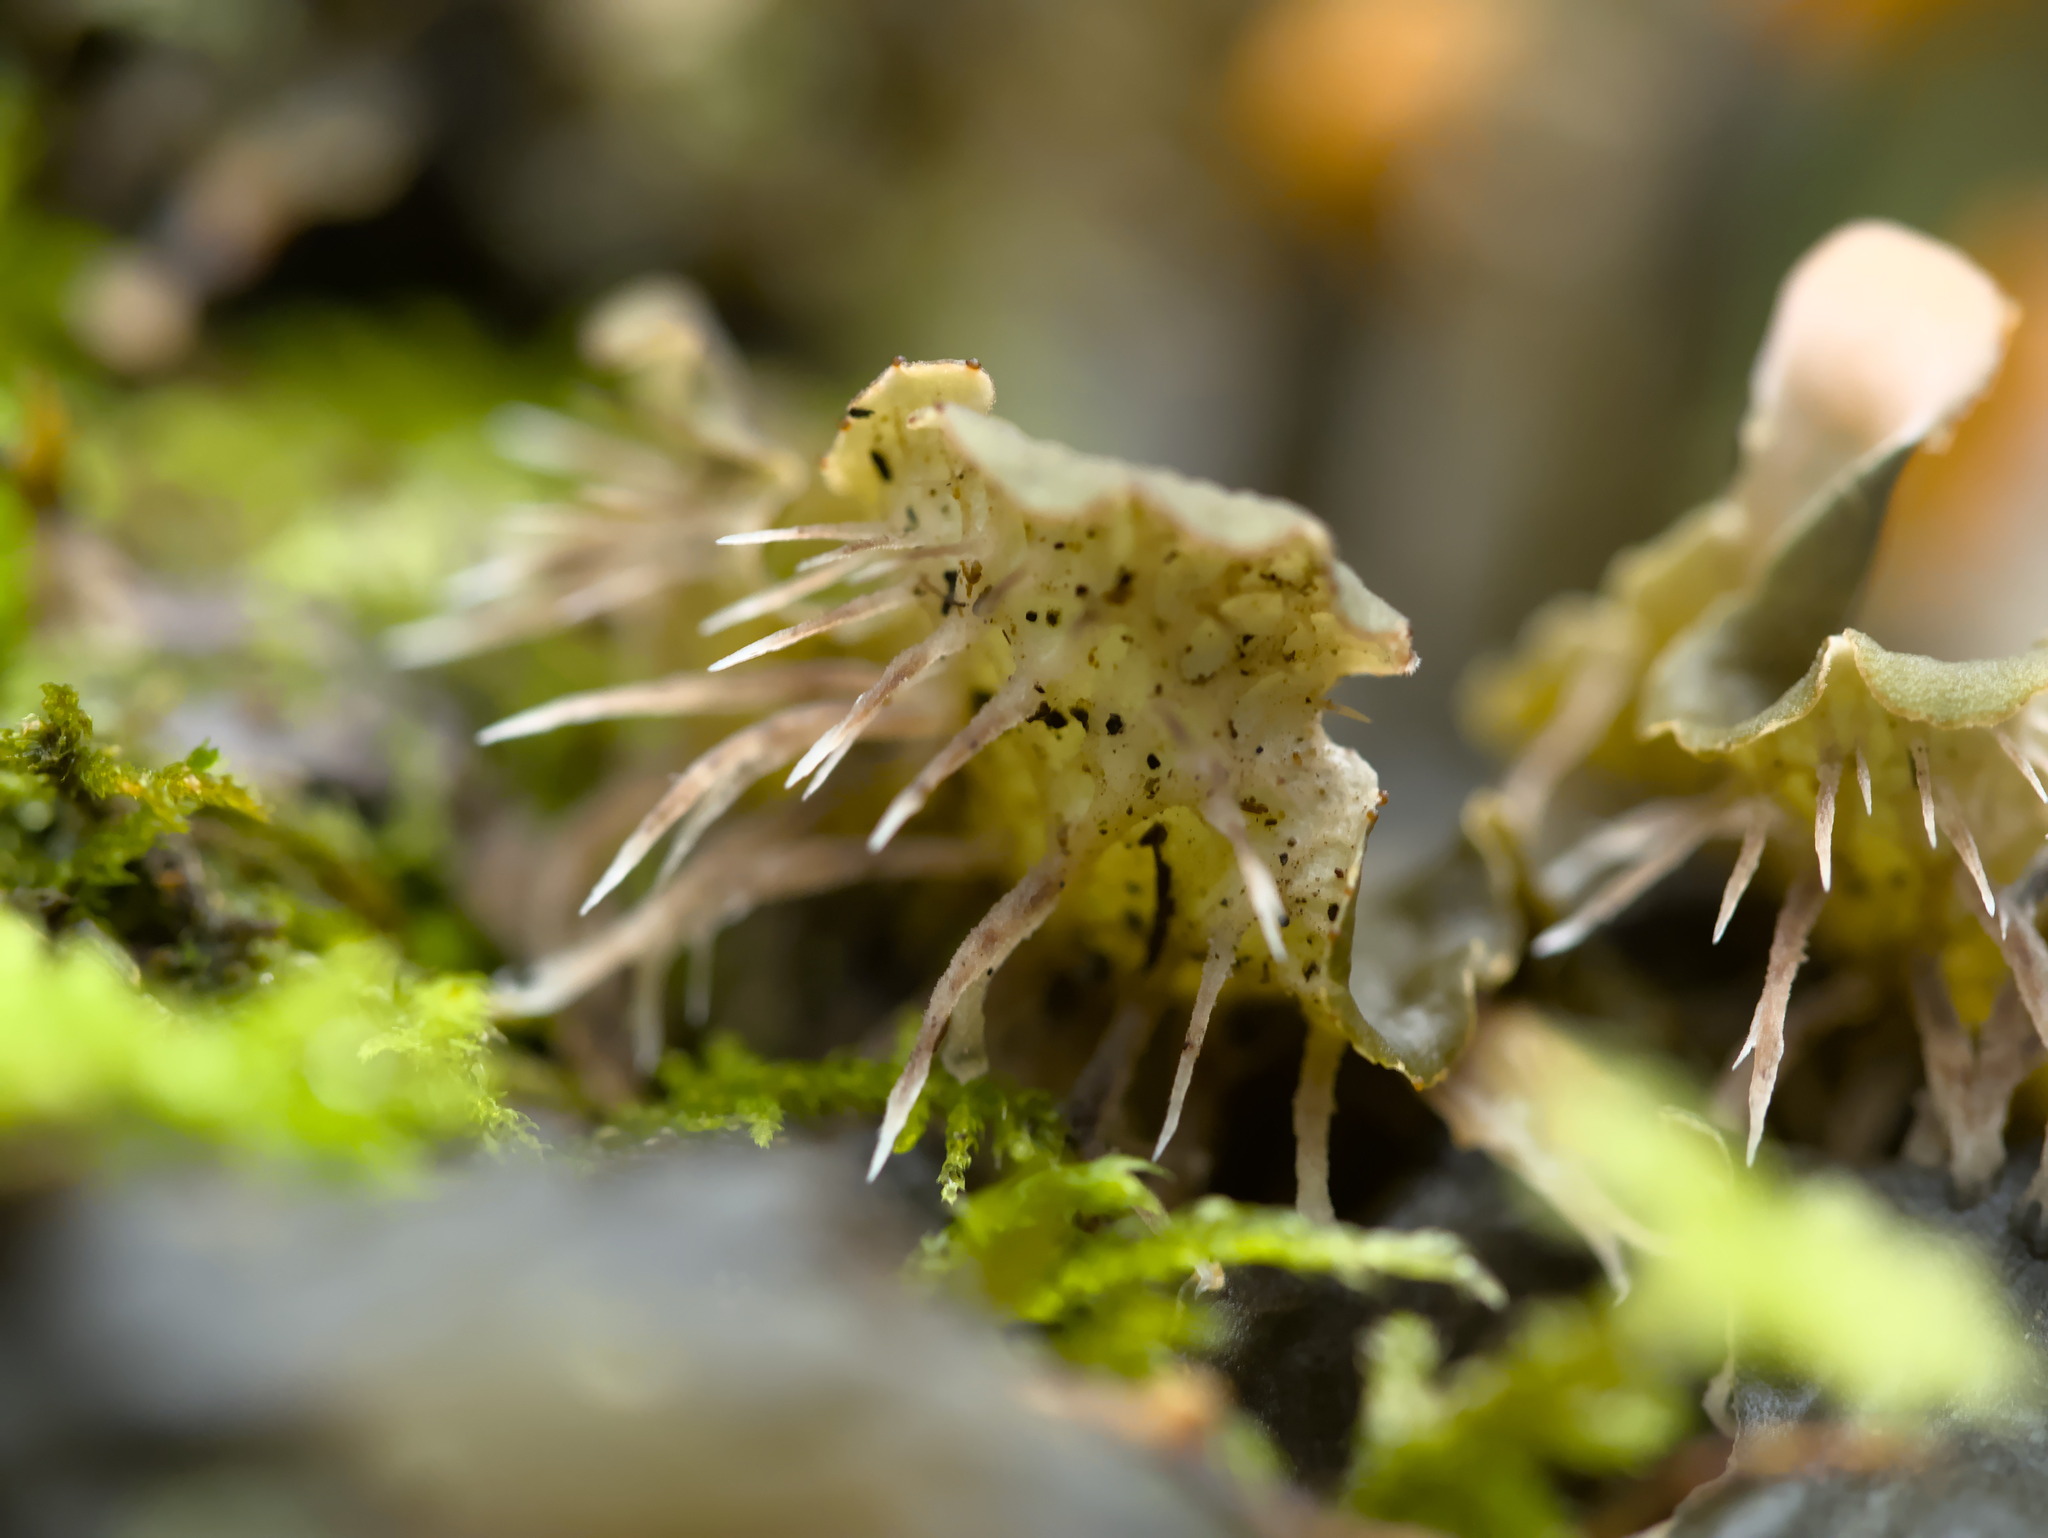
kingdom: Fungi
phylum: Ascomycota
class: Lecanoromycetes
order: Peltigerales
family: Peltigeraceae
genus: Peltigera
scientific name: Peltigera membranacea
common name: Membranous pelt lichen
